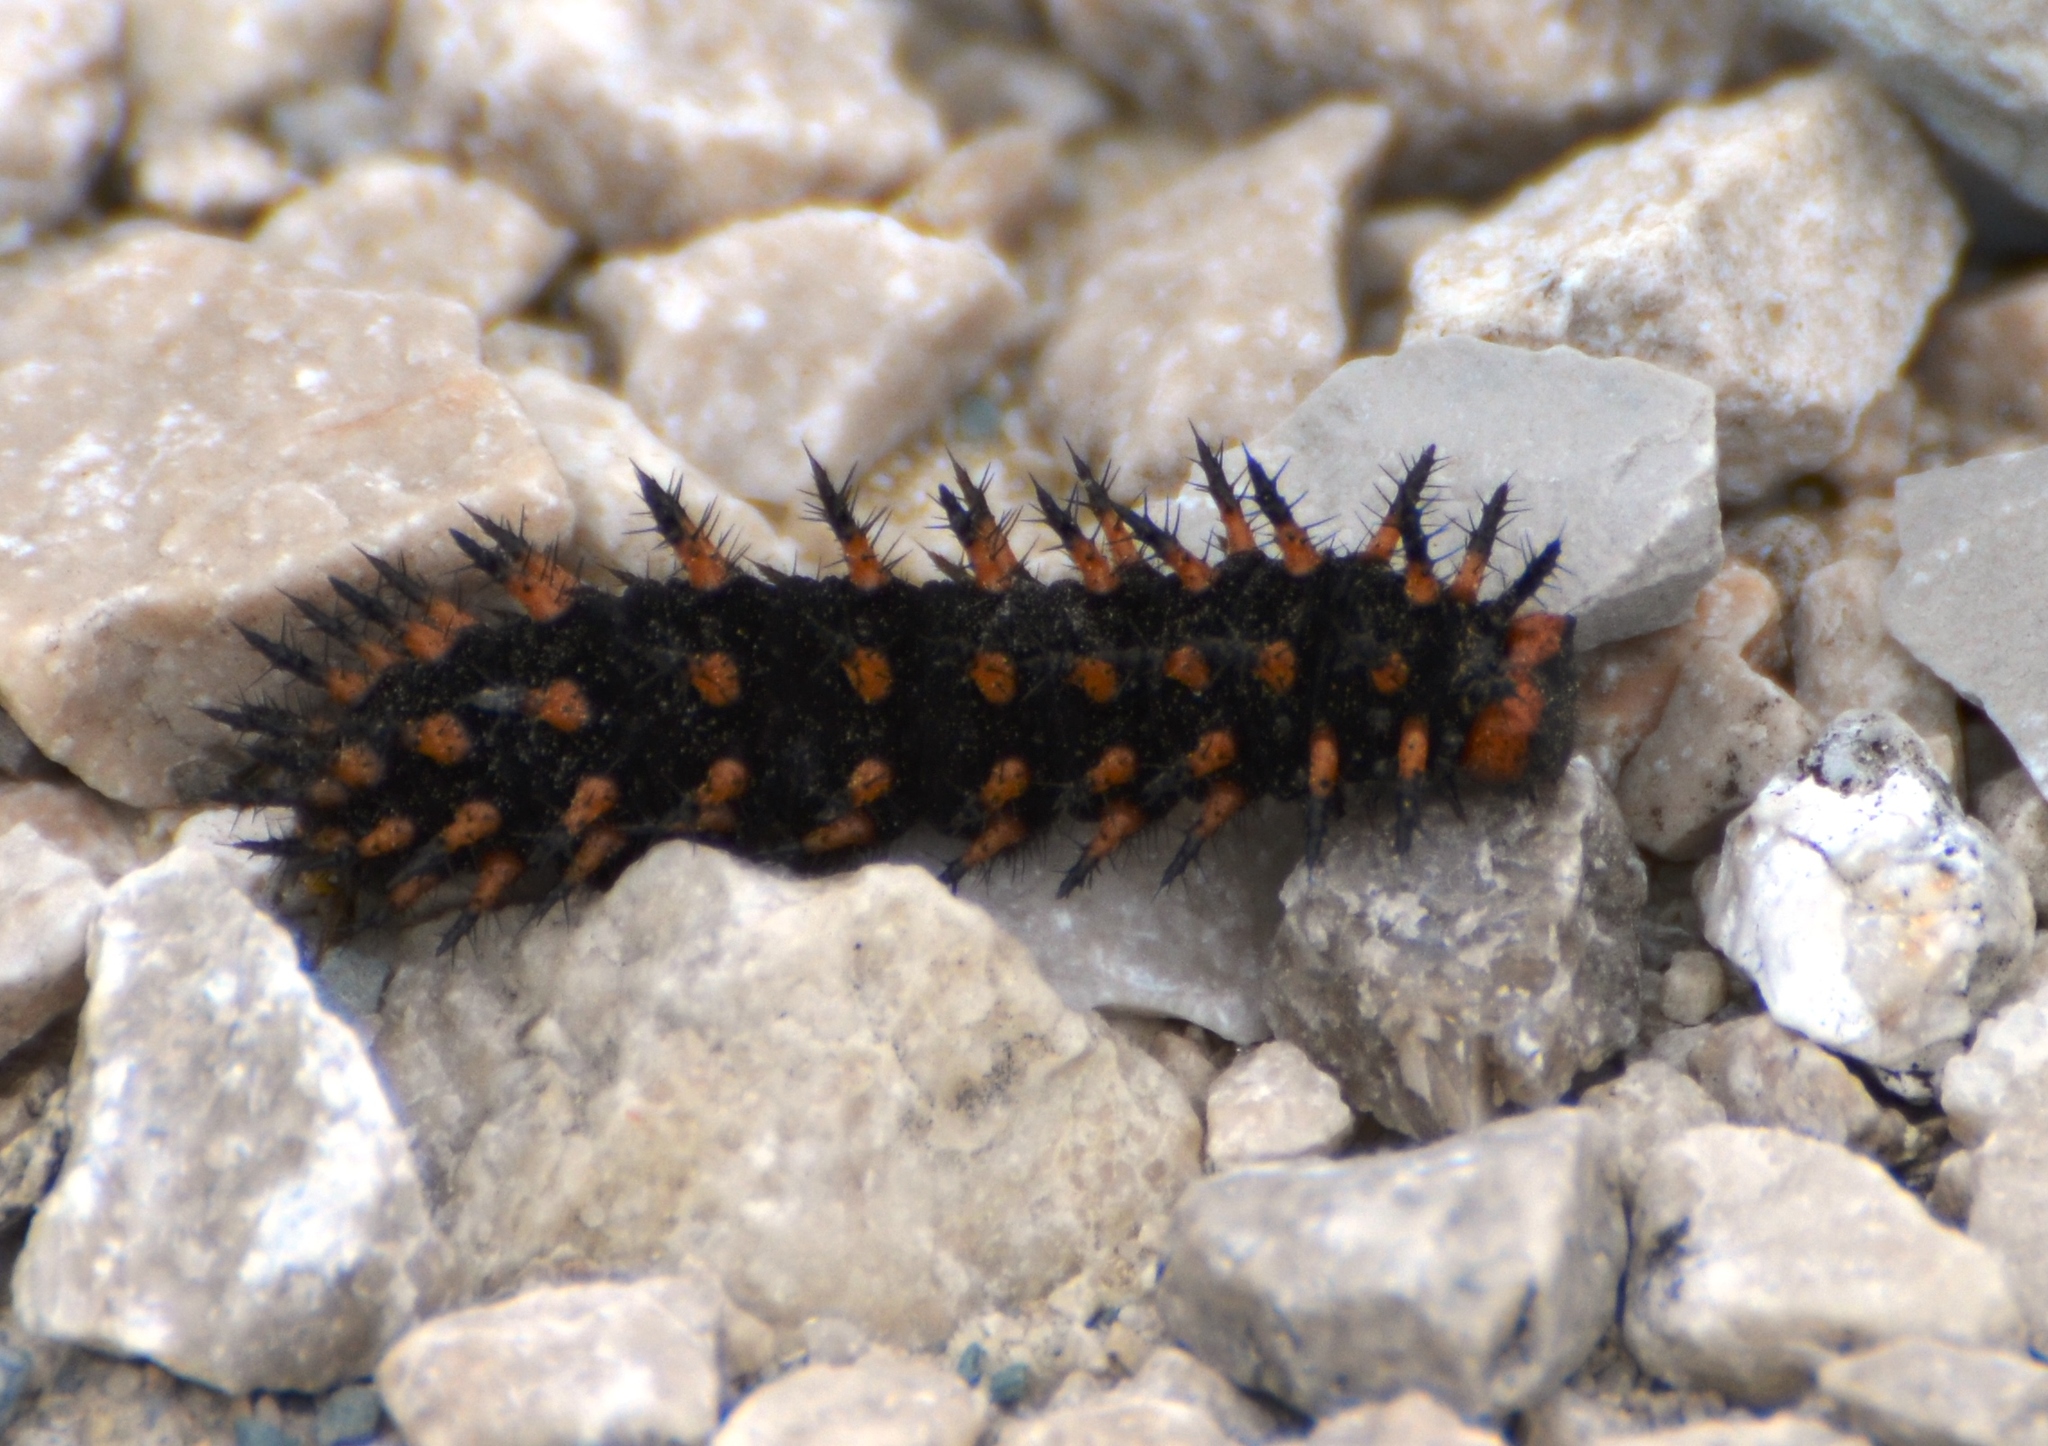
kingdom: Animalia
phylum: Arthropoda
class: Insecta
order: Lepidoptera
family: Nymphalidae
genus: Speyeria
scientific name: Speyeria cybele
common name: Great spangled fritillary
